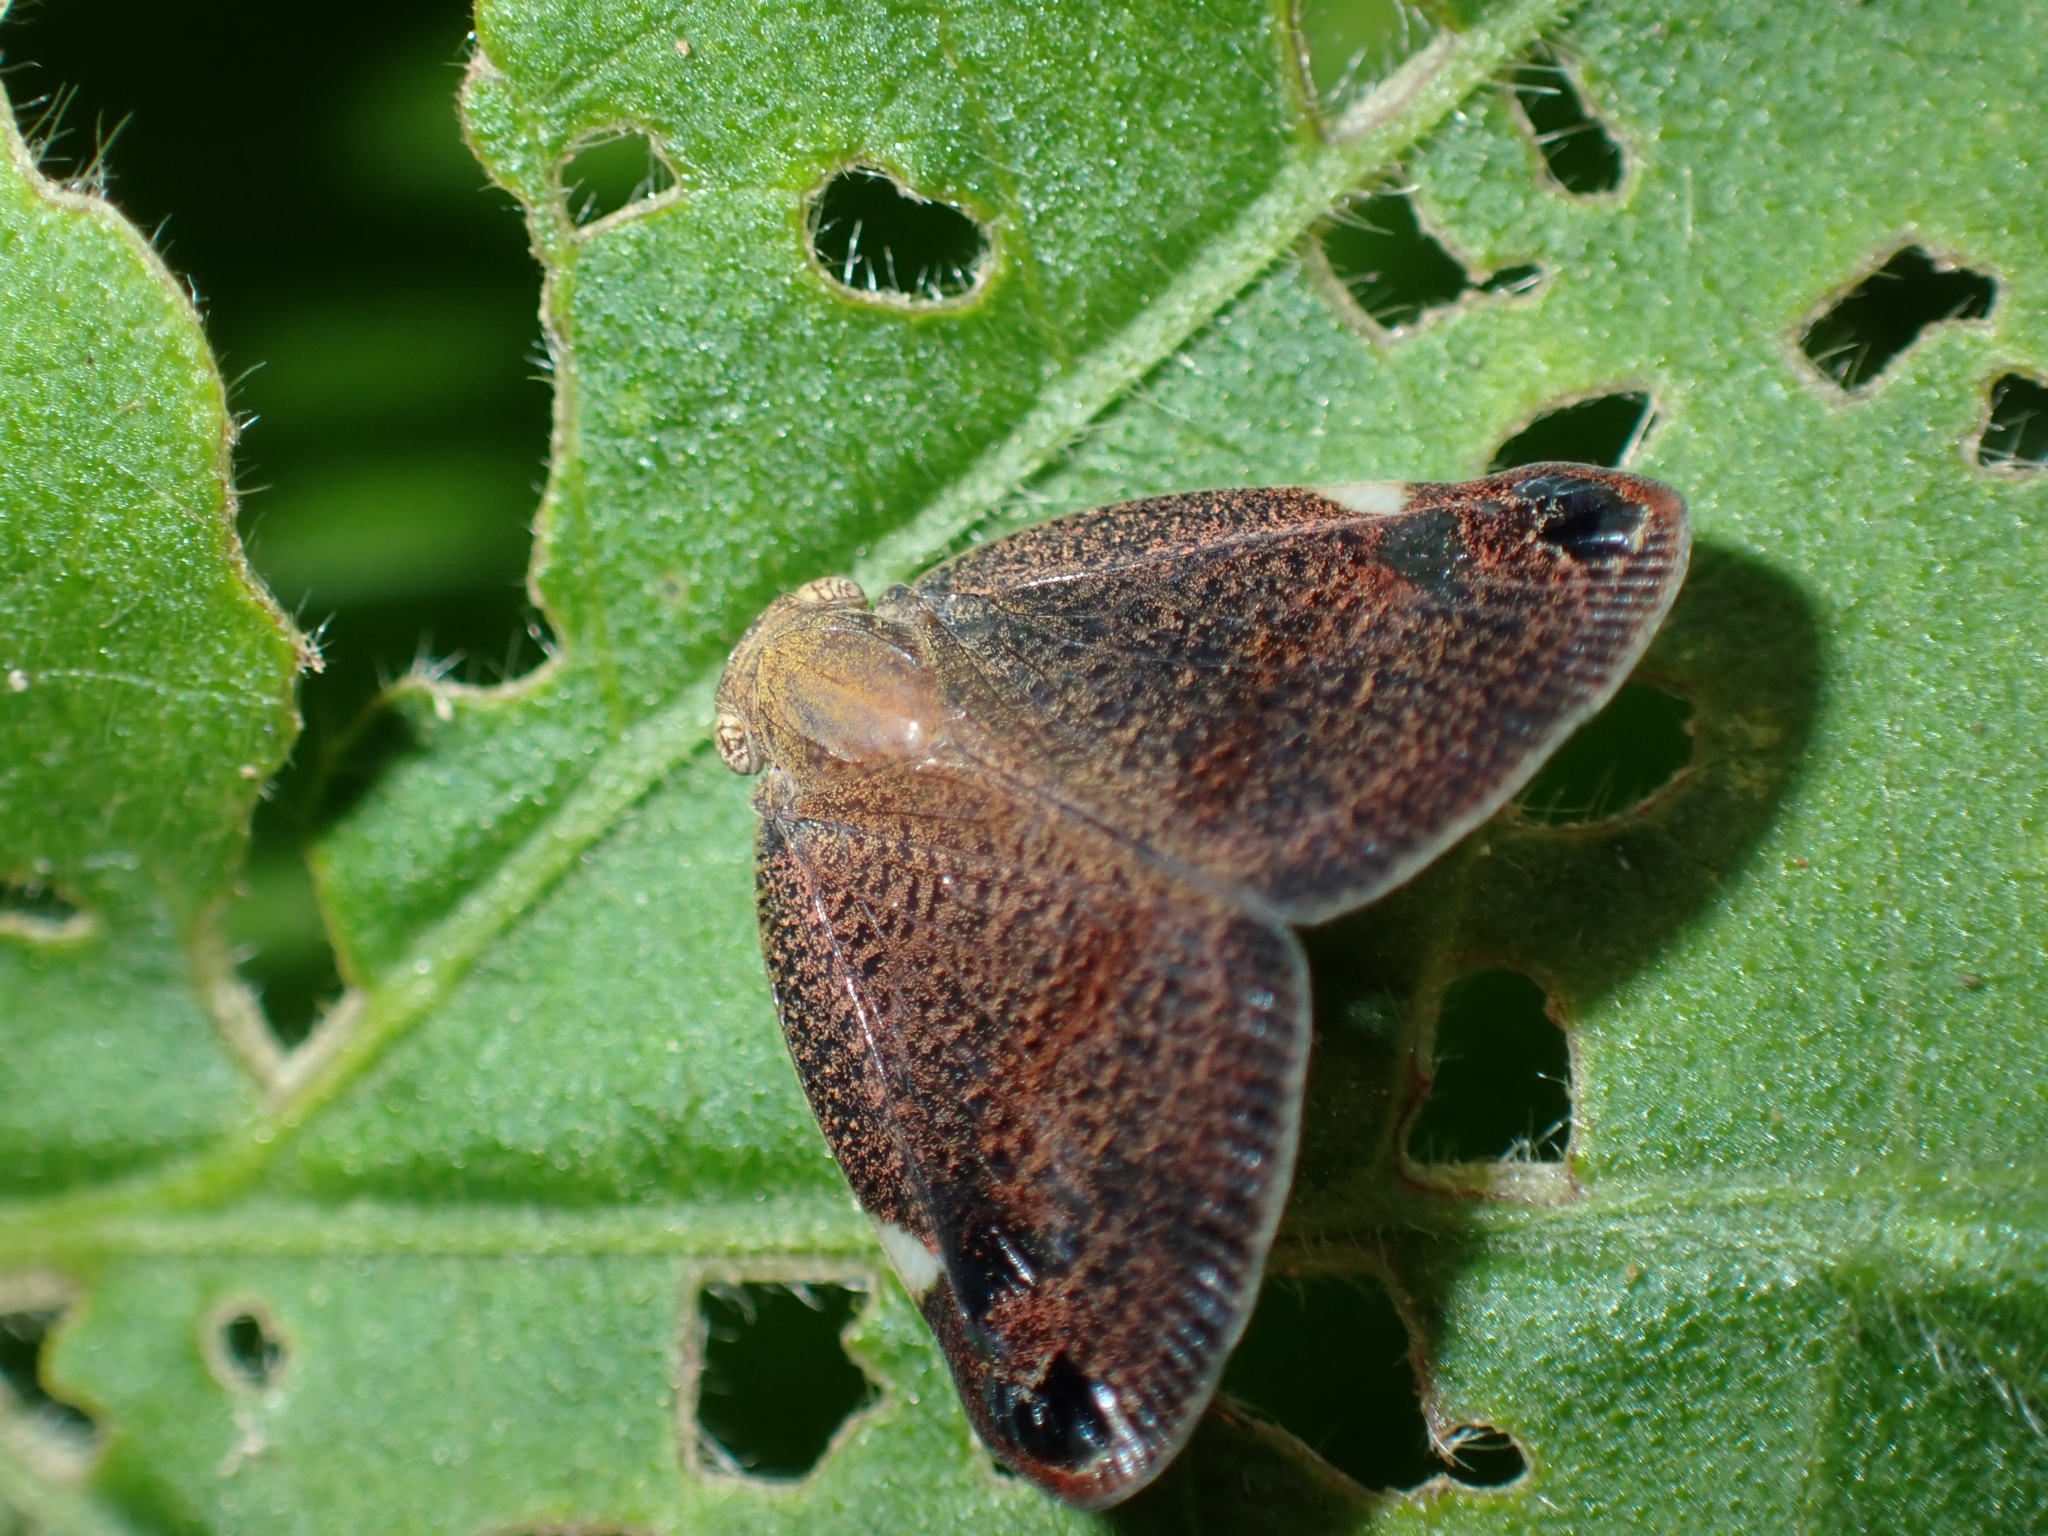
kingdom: Animalia
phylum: Arthropoda
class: Insecta
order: Hemiptera
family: Ricaniidae
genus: Parapiromis
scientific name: Parapiromis translucida
